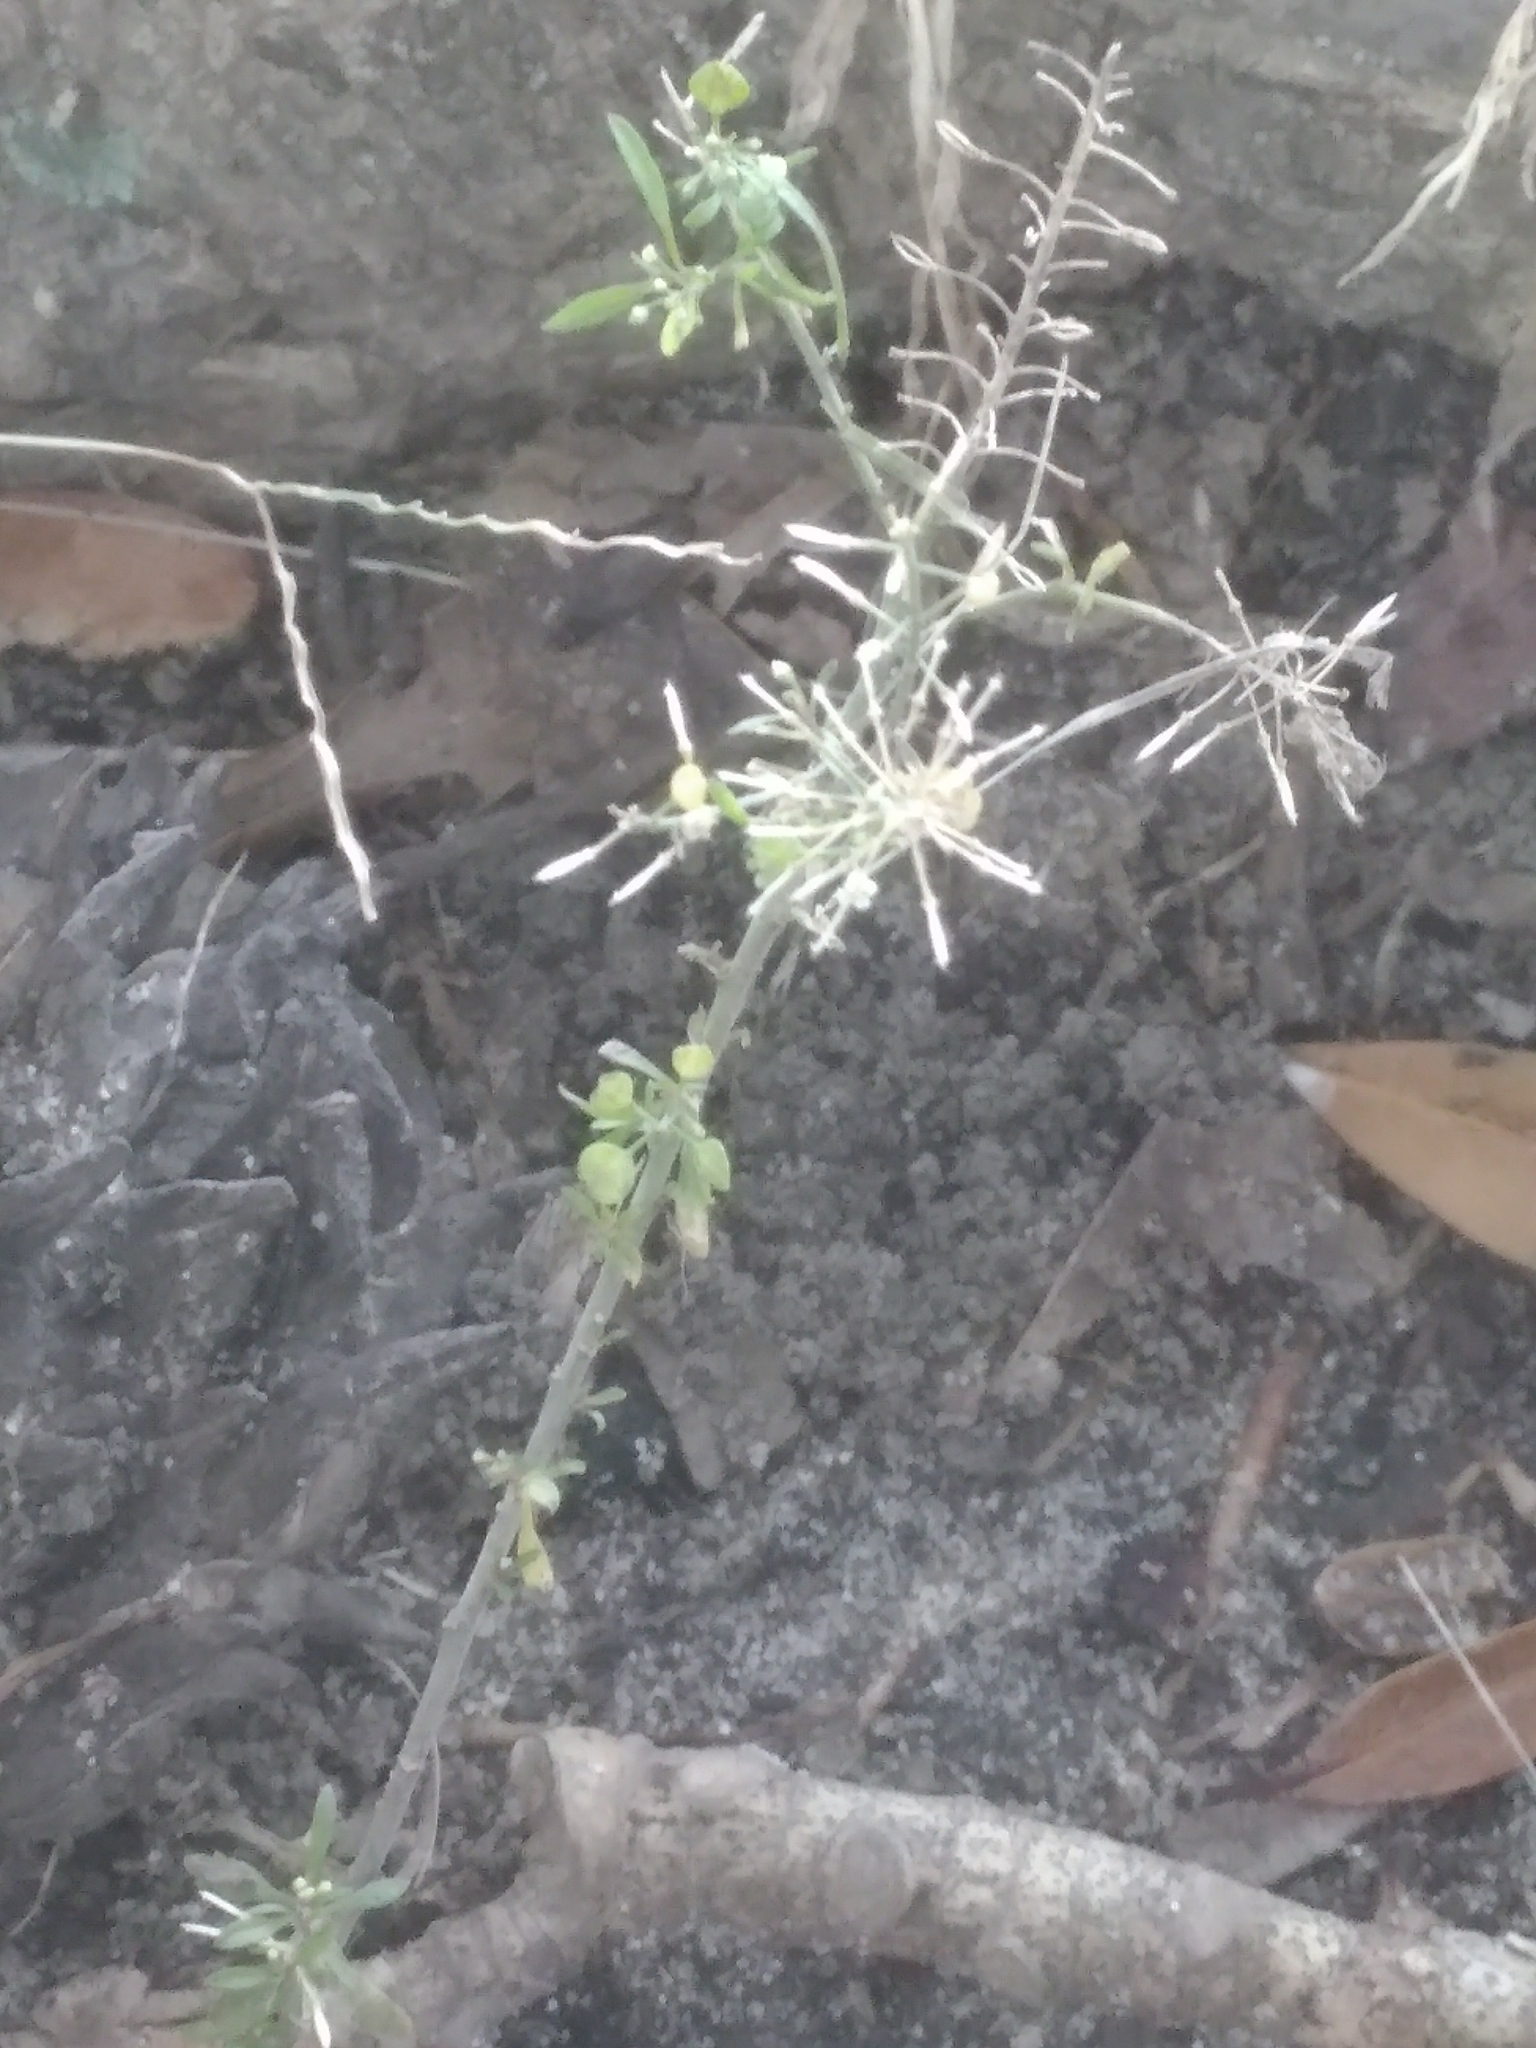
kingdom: Plantae
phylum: Tracheophyta
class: Magnoliopsida
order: Brassicales
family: Brassicaceae
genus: Lepidium
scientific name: Lepidium virginicum
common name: Least pepperwort
